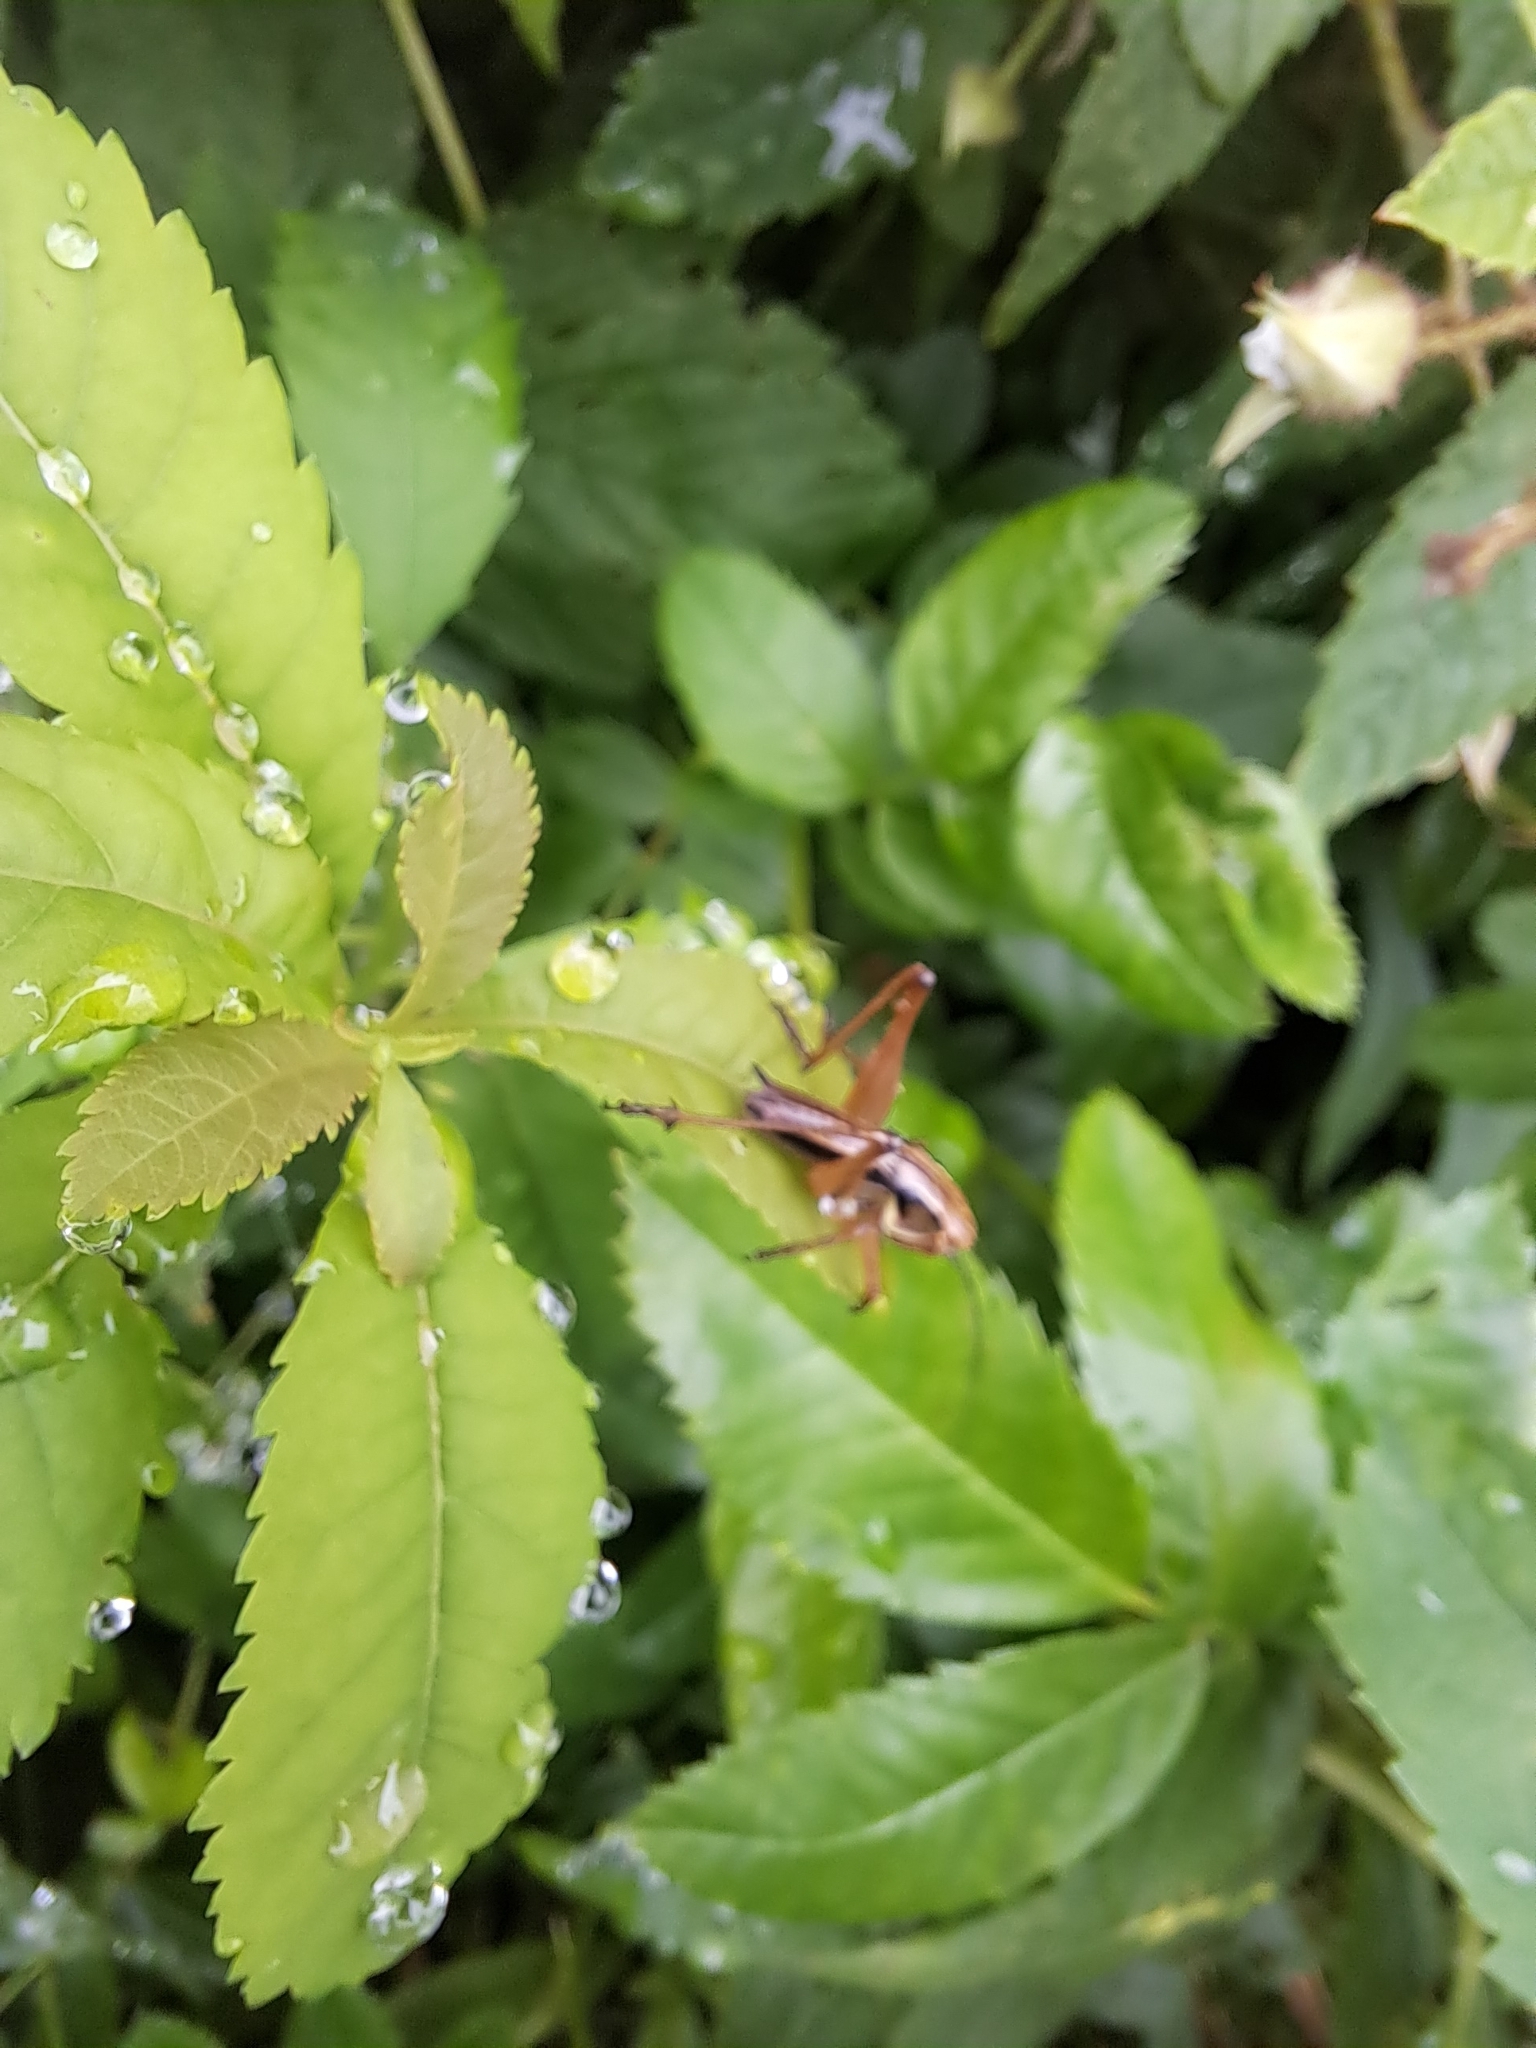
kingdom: Animalia
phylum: Arthropoda
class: Insecta
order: Orthoptera
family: Tettigoniidae
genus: Roeseliana
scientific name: Roeseliana roeselii
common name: Roesel's bush cricket
